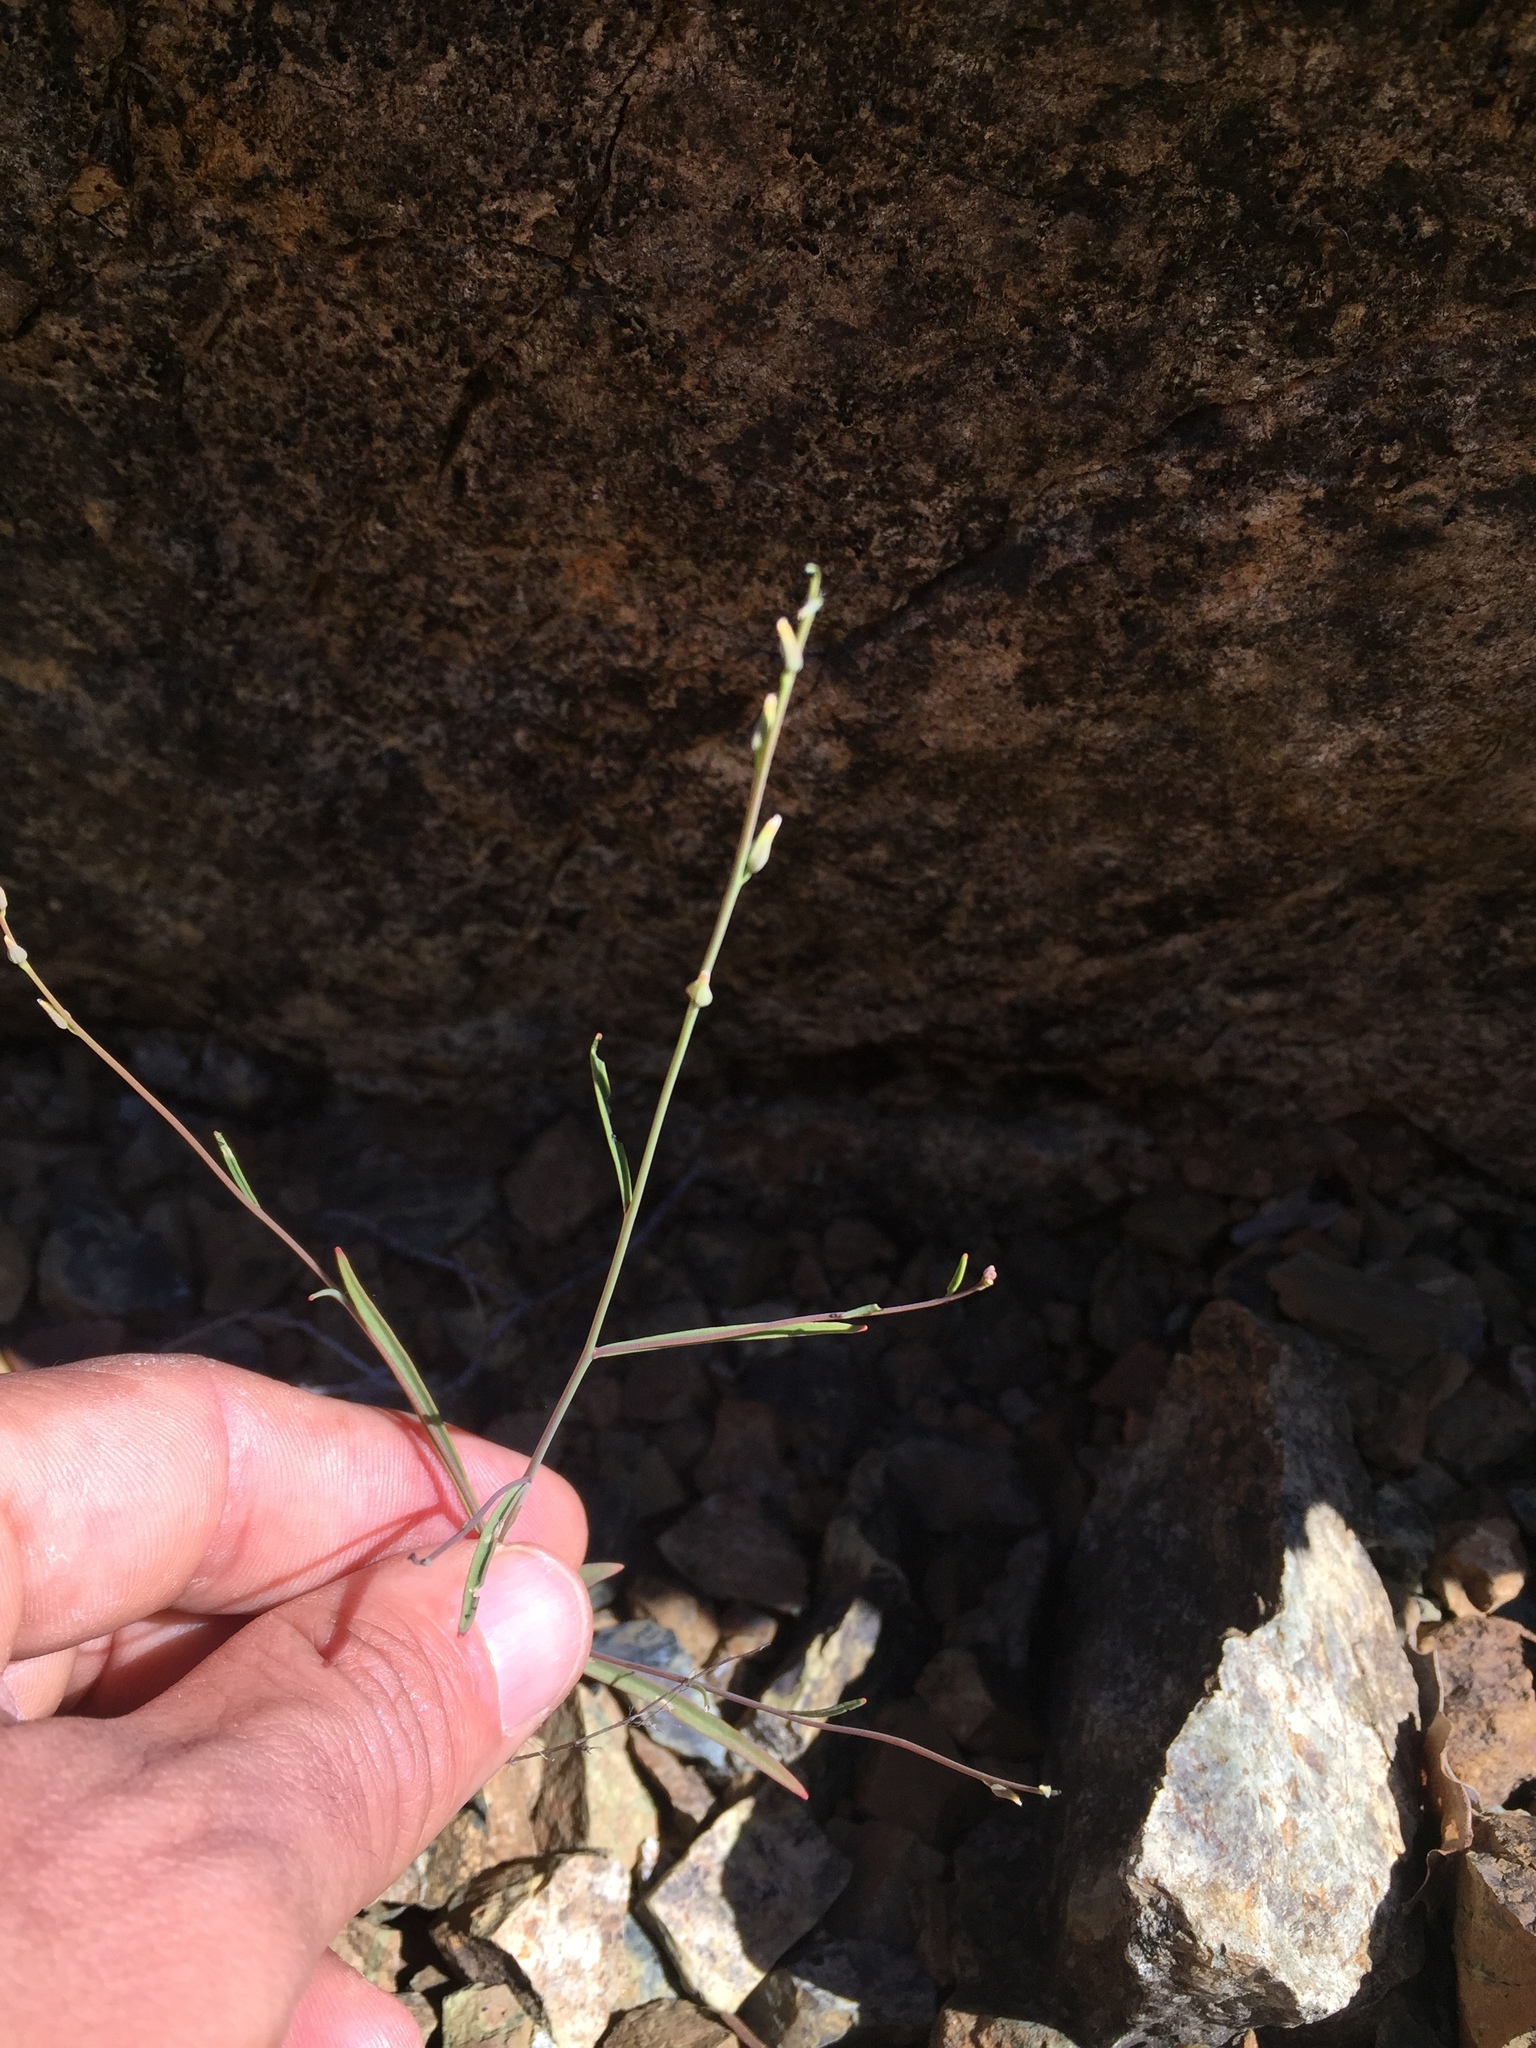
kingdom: Plantae
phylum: Tracheophyta
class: Magnoliopsida
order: Brassicales
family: Brassicaceae
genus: Streptanthus
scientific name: Streptanthus morrisonii
